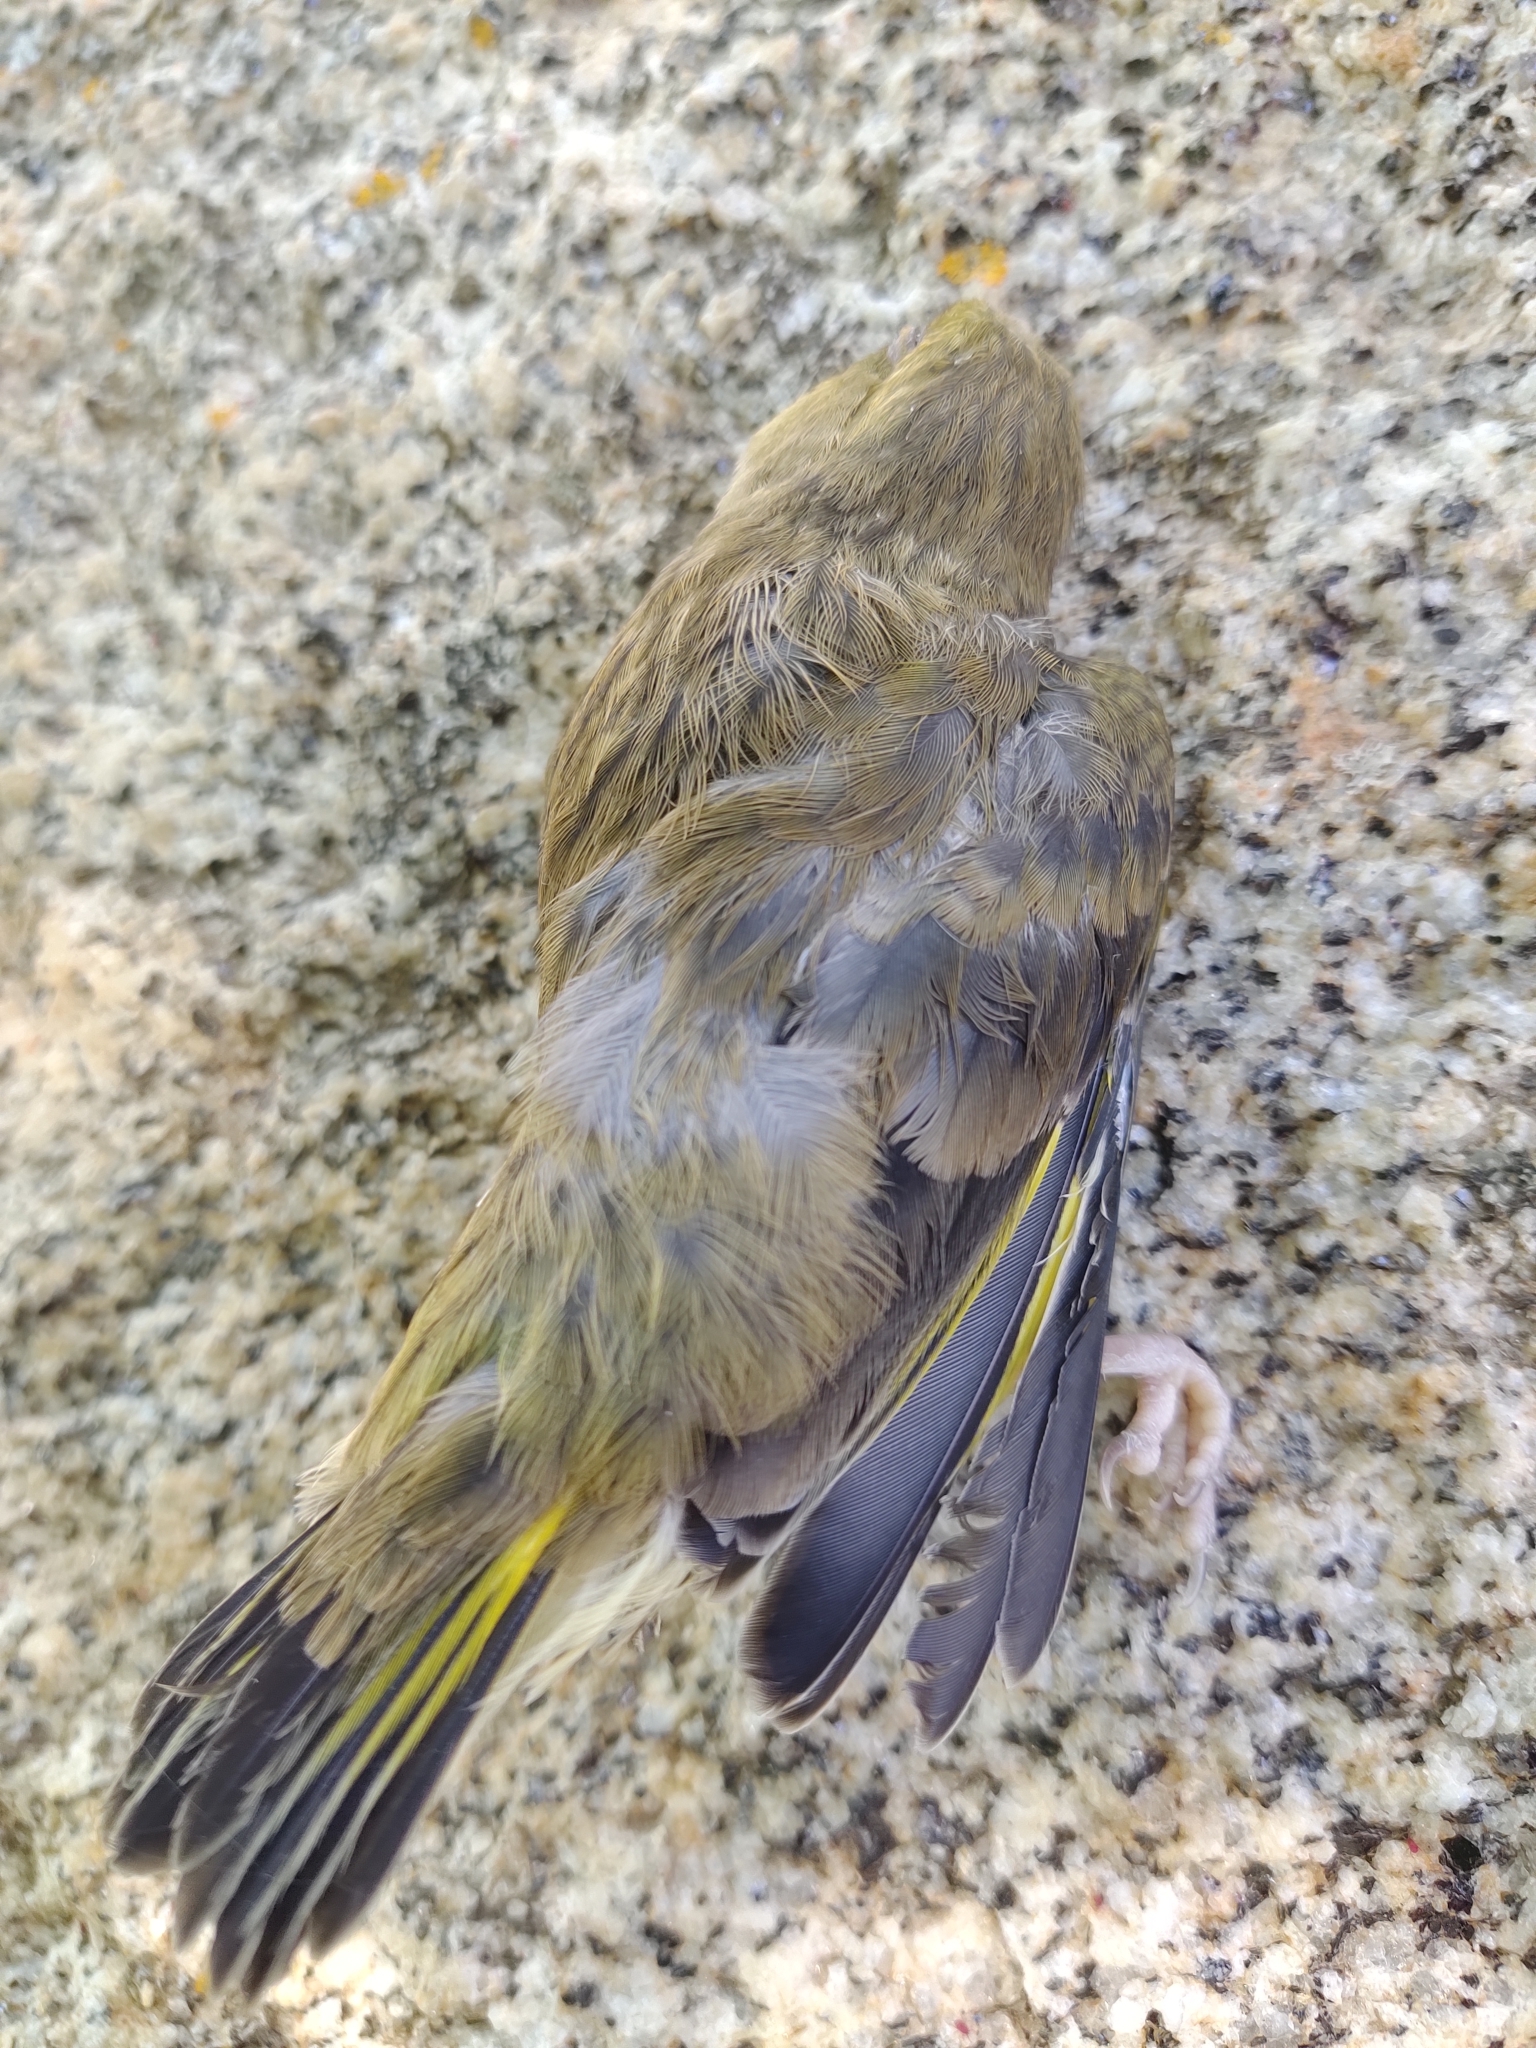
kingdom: Plantae
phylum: Tracheophyta
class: Liliopsida
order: Poales
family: Poaceae
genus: Chloris
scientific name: Chloris chloris
